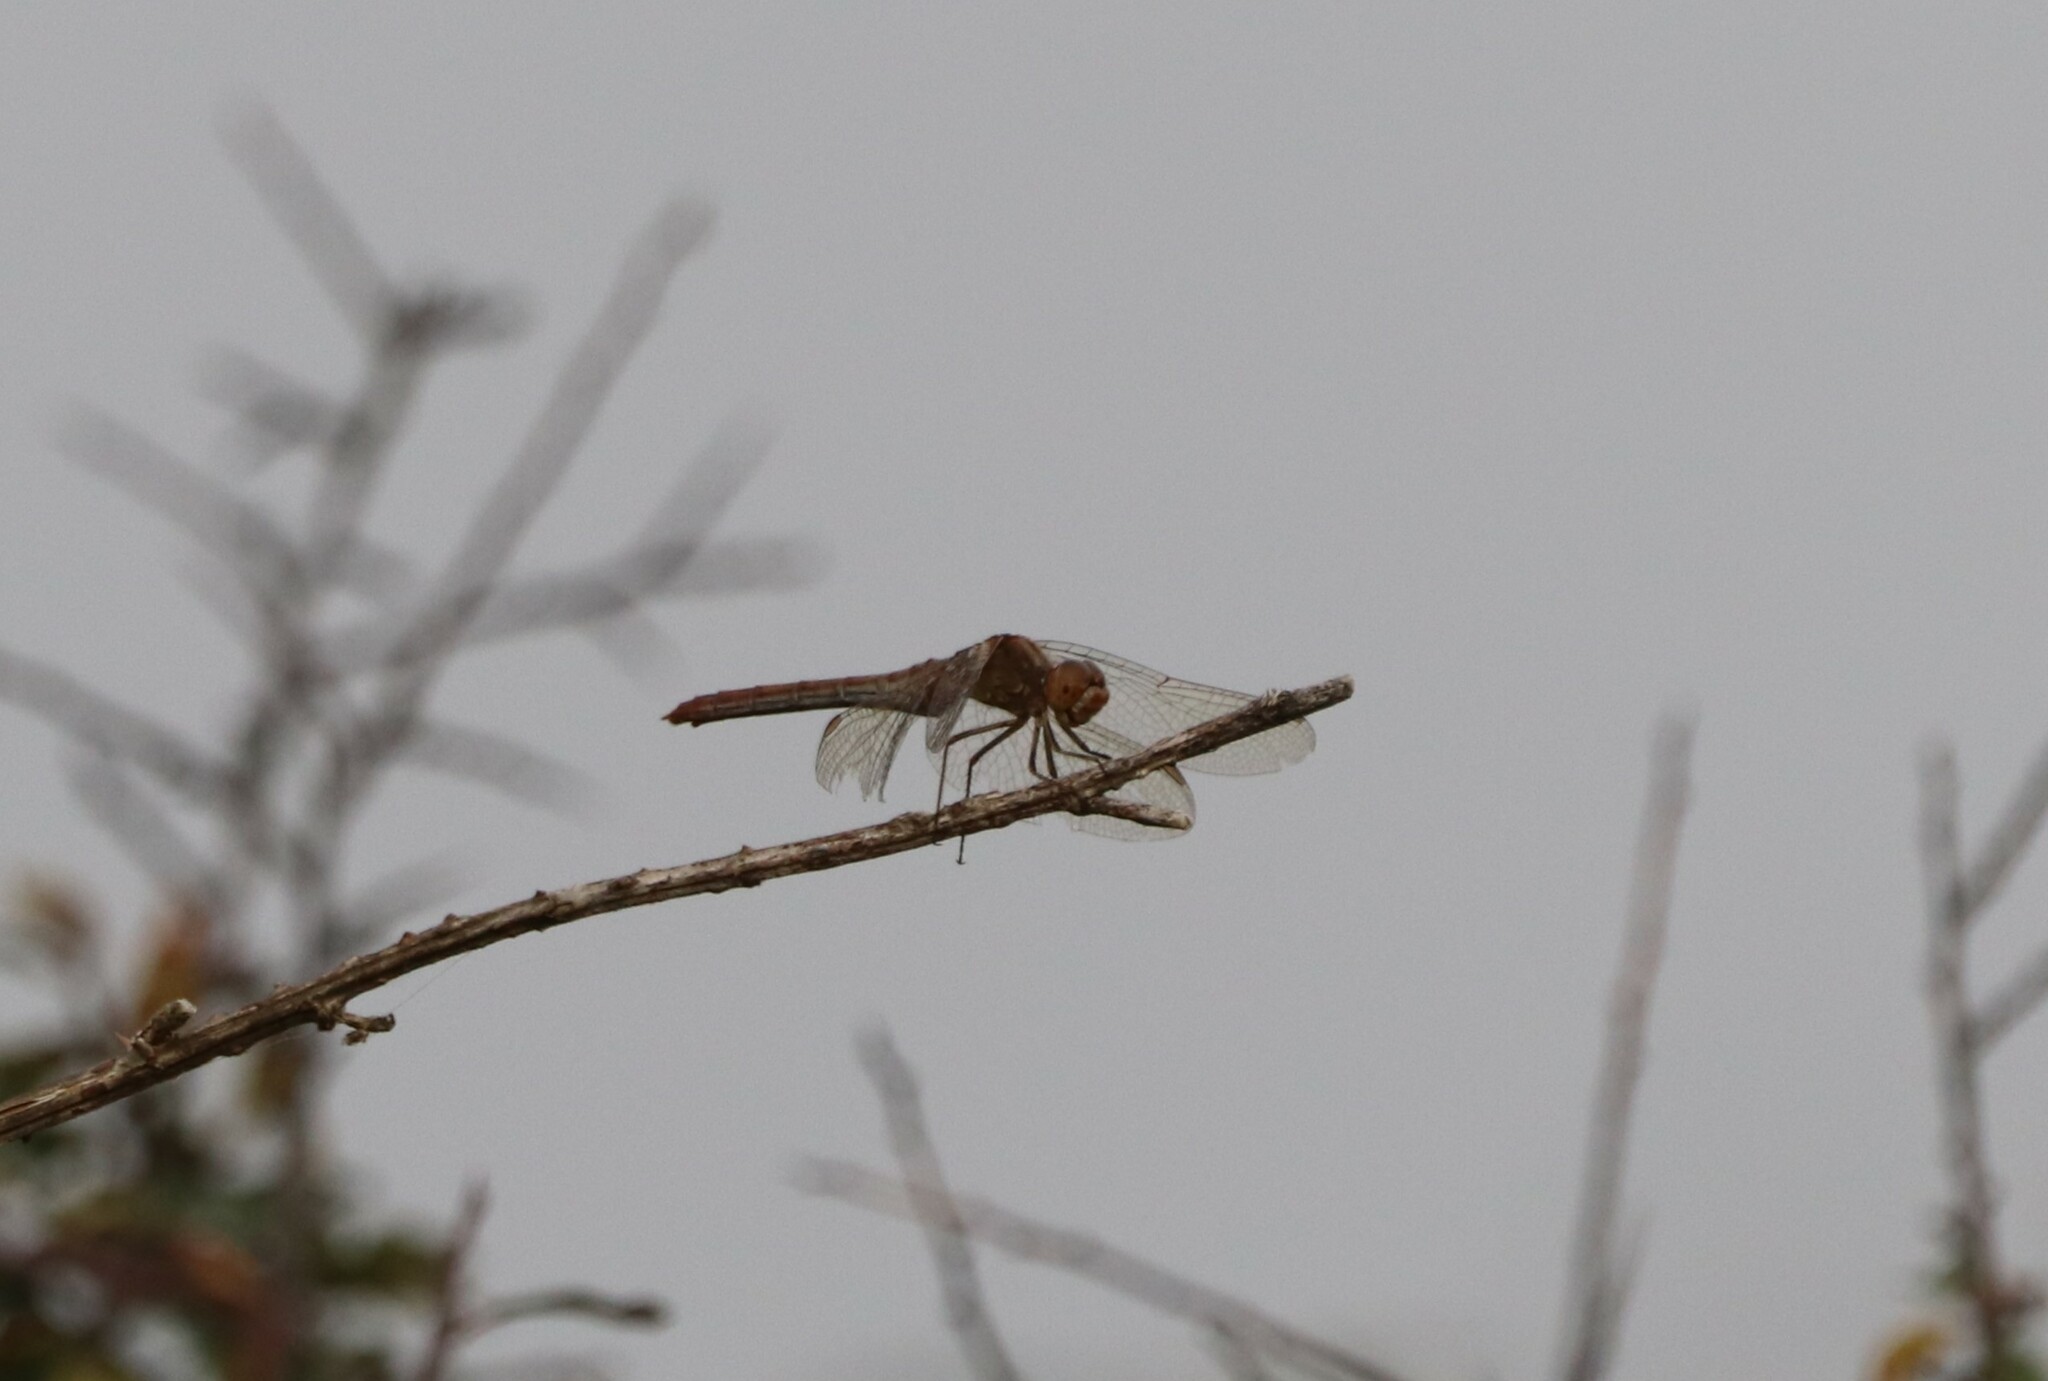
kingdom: Animalia
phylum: Arthropoda
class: Insecta
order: Odonata
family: Libellulidae
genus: Sympetrum
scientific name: Sympetrum striolatum
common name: Common darter
